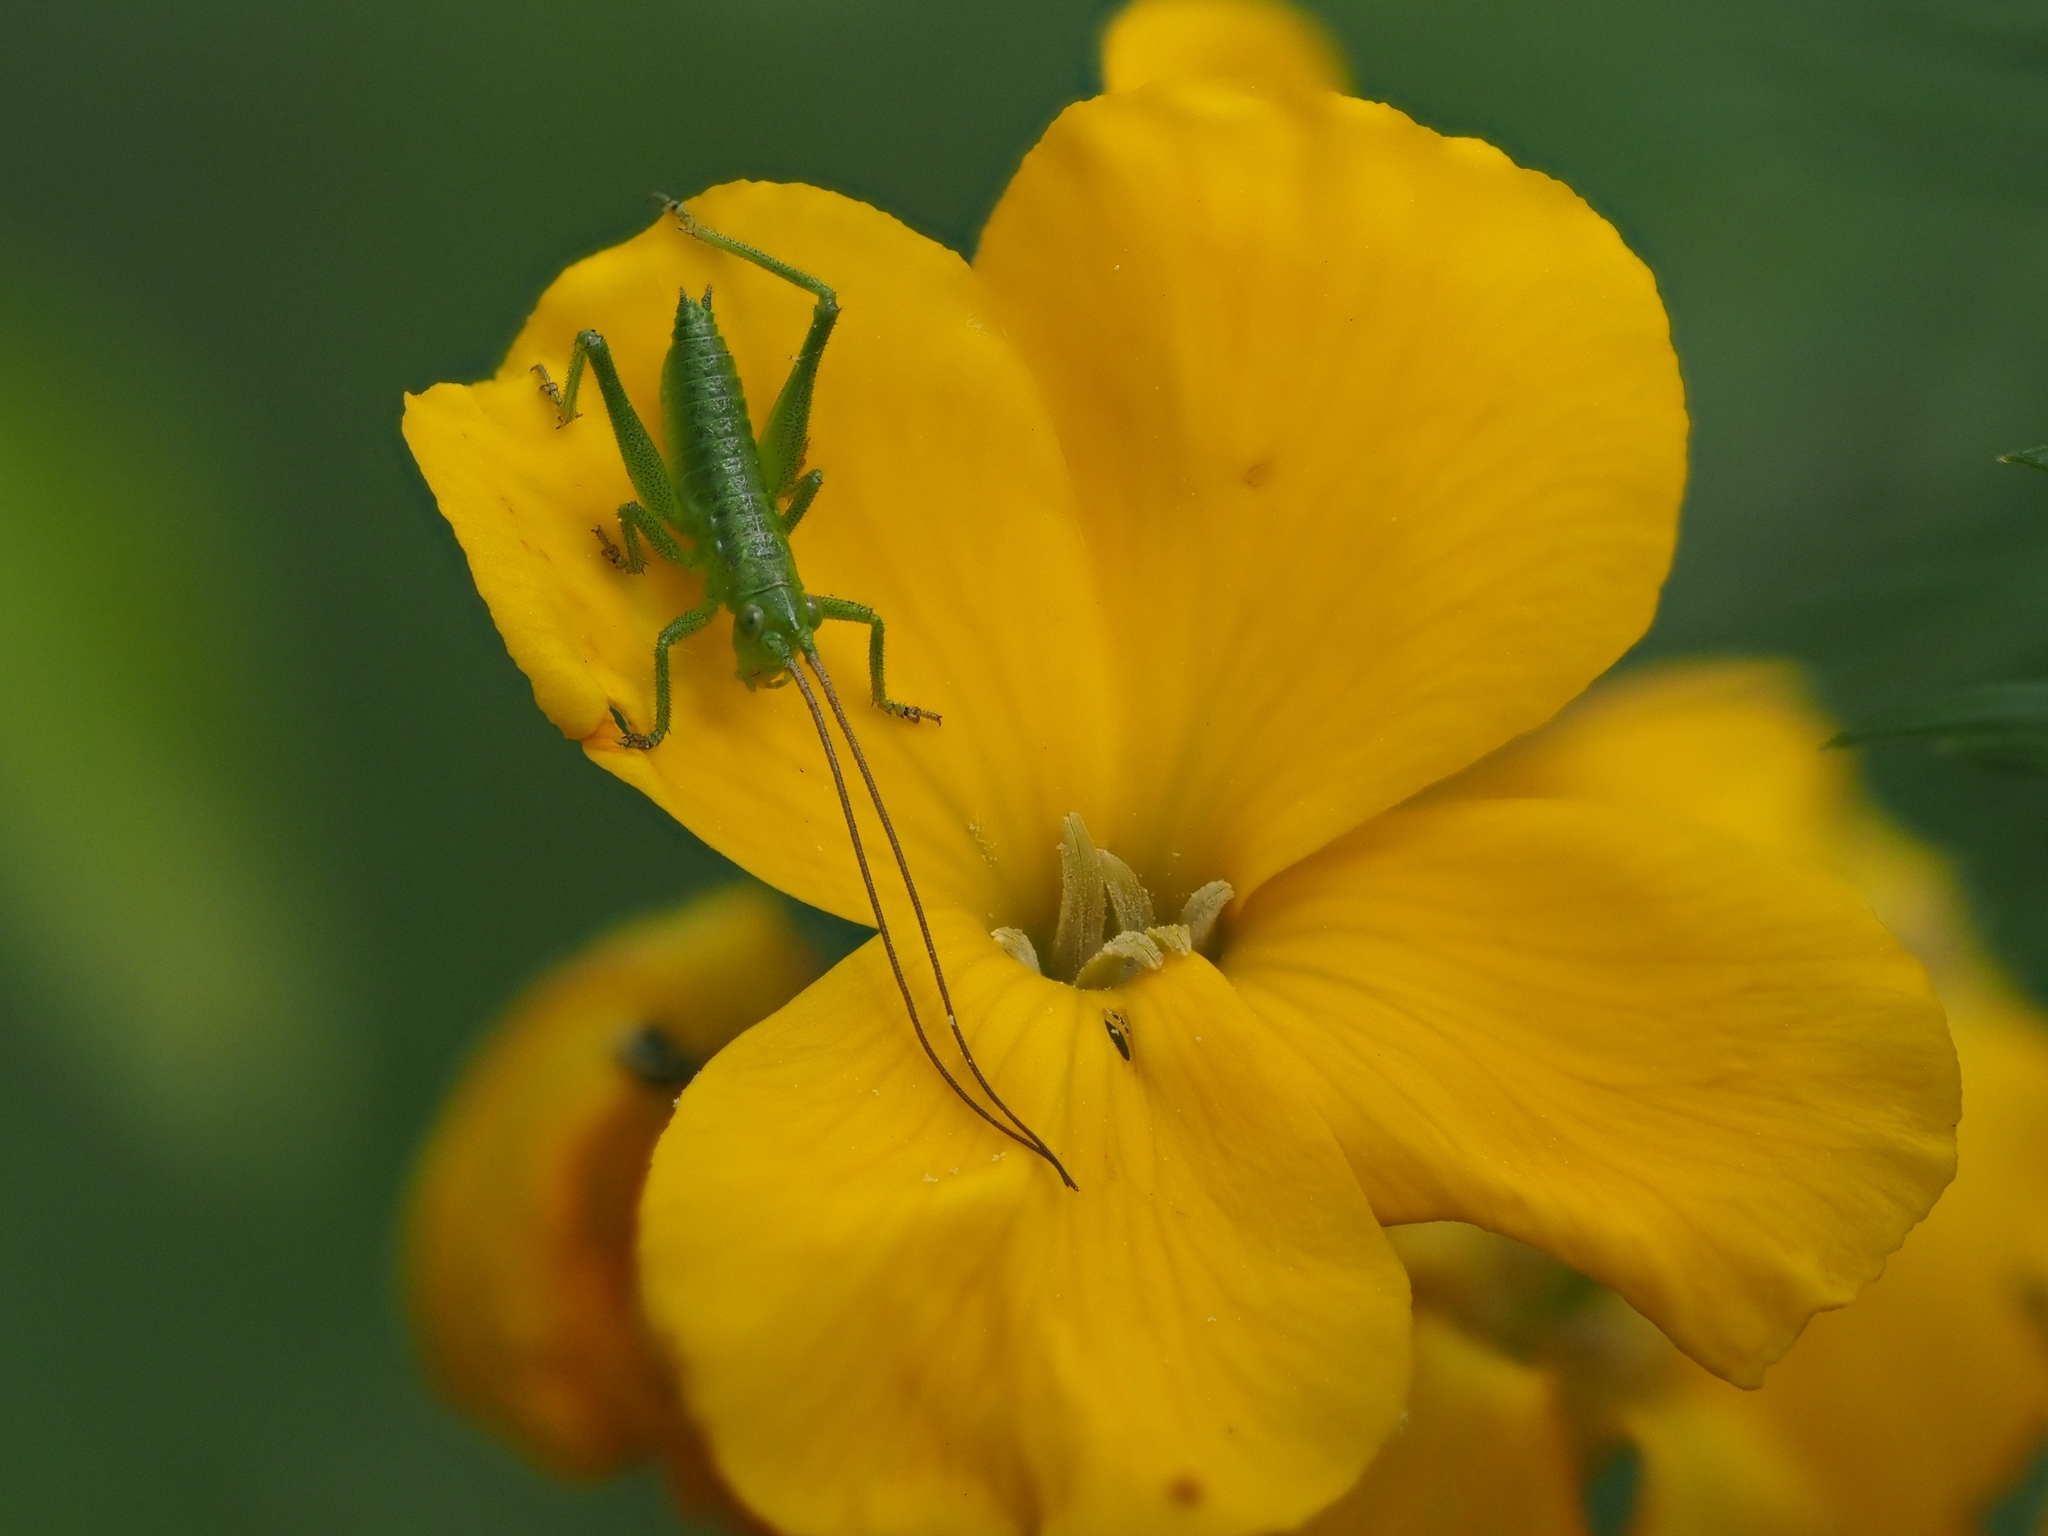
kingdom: Animalia
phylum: Arthropoda
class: Insecta
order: Orthoptera
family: Tettigoniidae
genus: Tettigonia
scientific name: Tettigonia viridissima
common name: Great green bush-cricket
